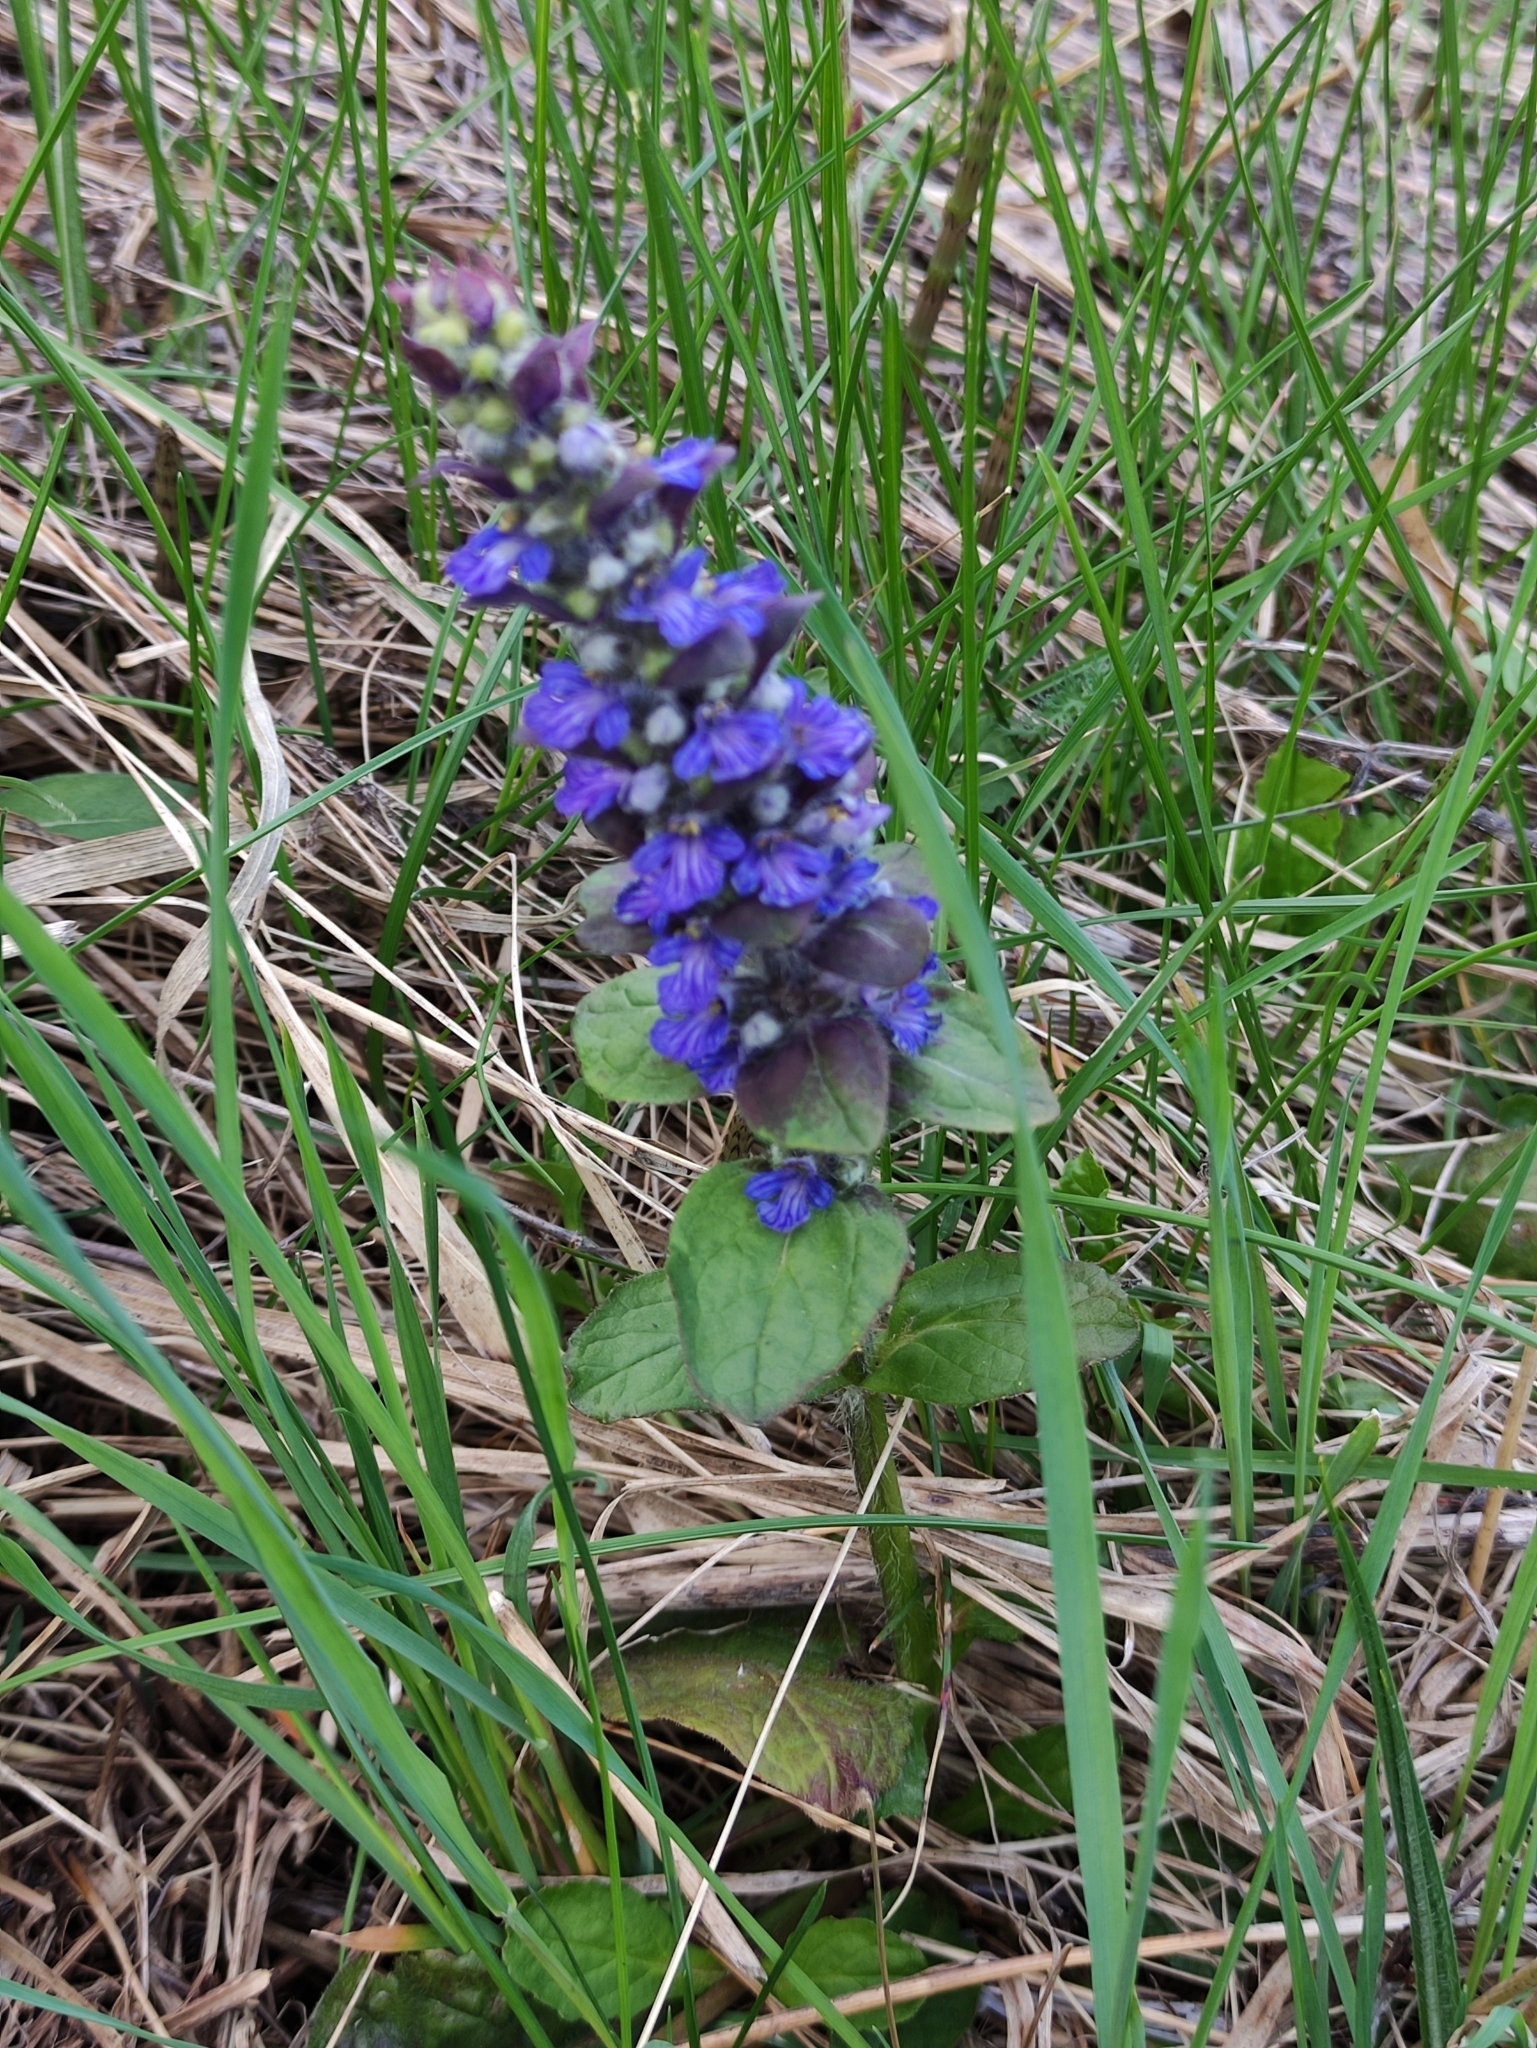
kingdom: Plantae
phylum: Tracheophyta
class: Magnoliopsida
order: Lamiales
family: Lamiaceae
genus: Ajuga
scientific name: Ajuga reptans
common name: Bugle
